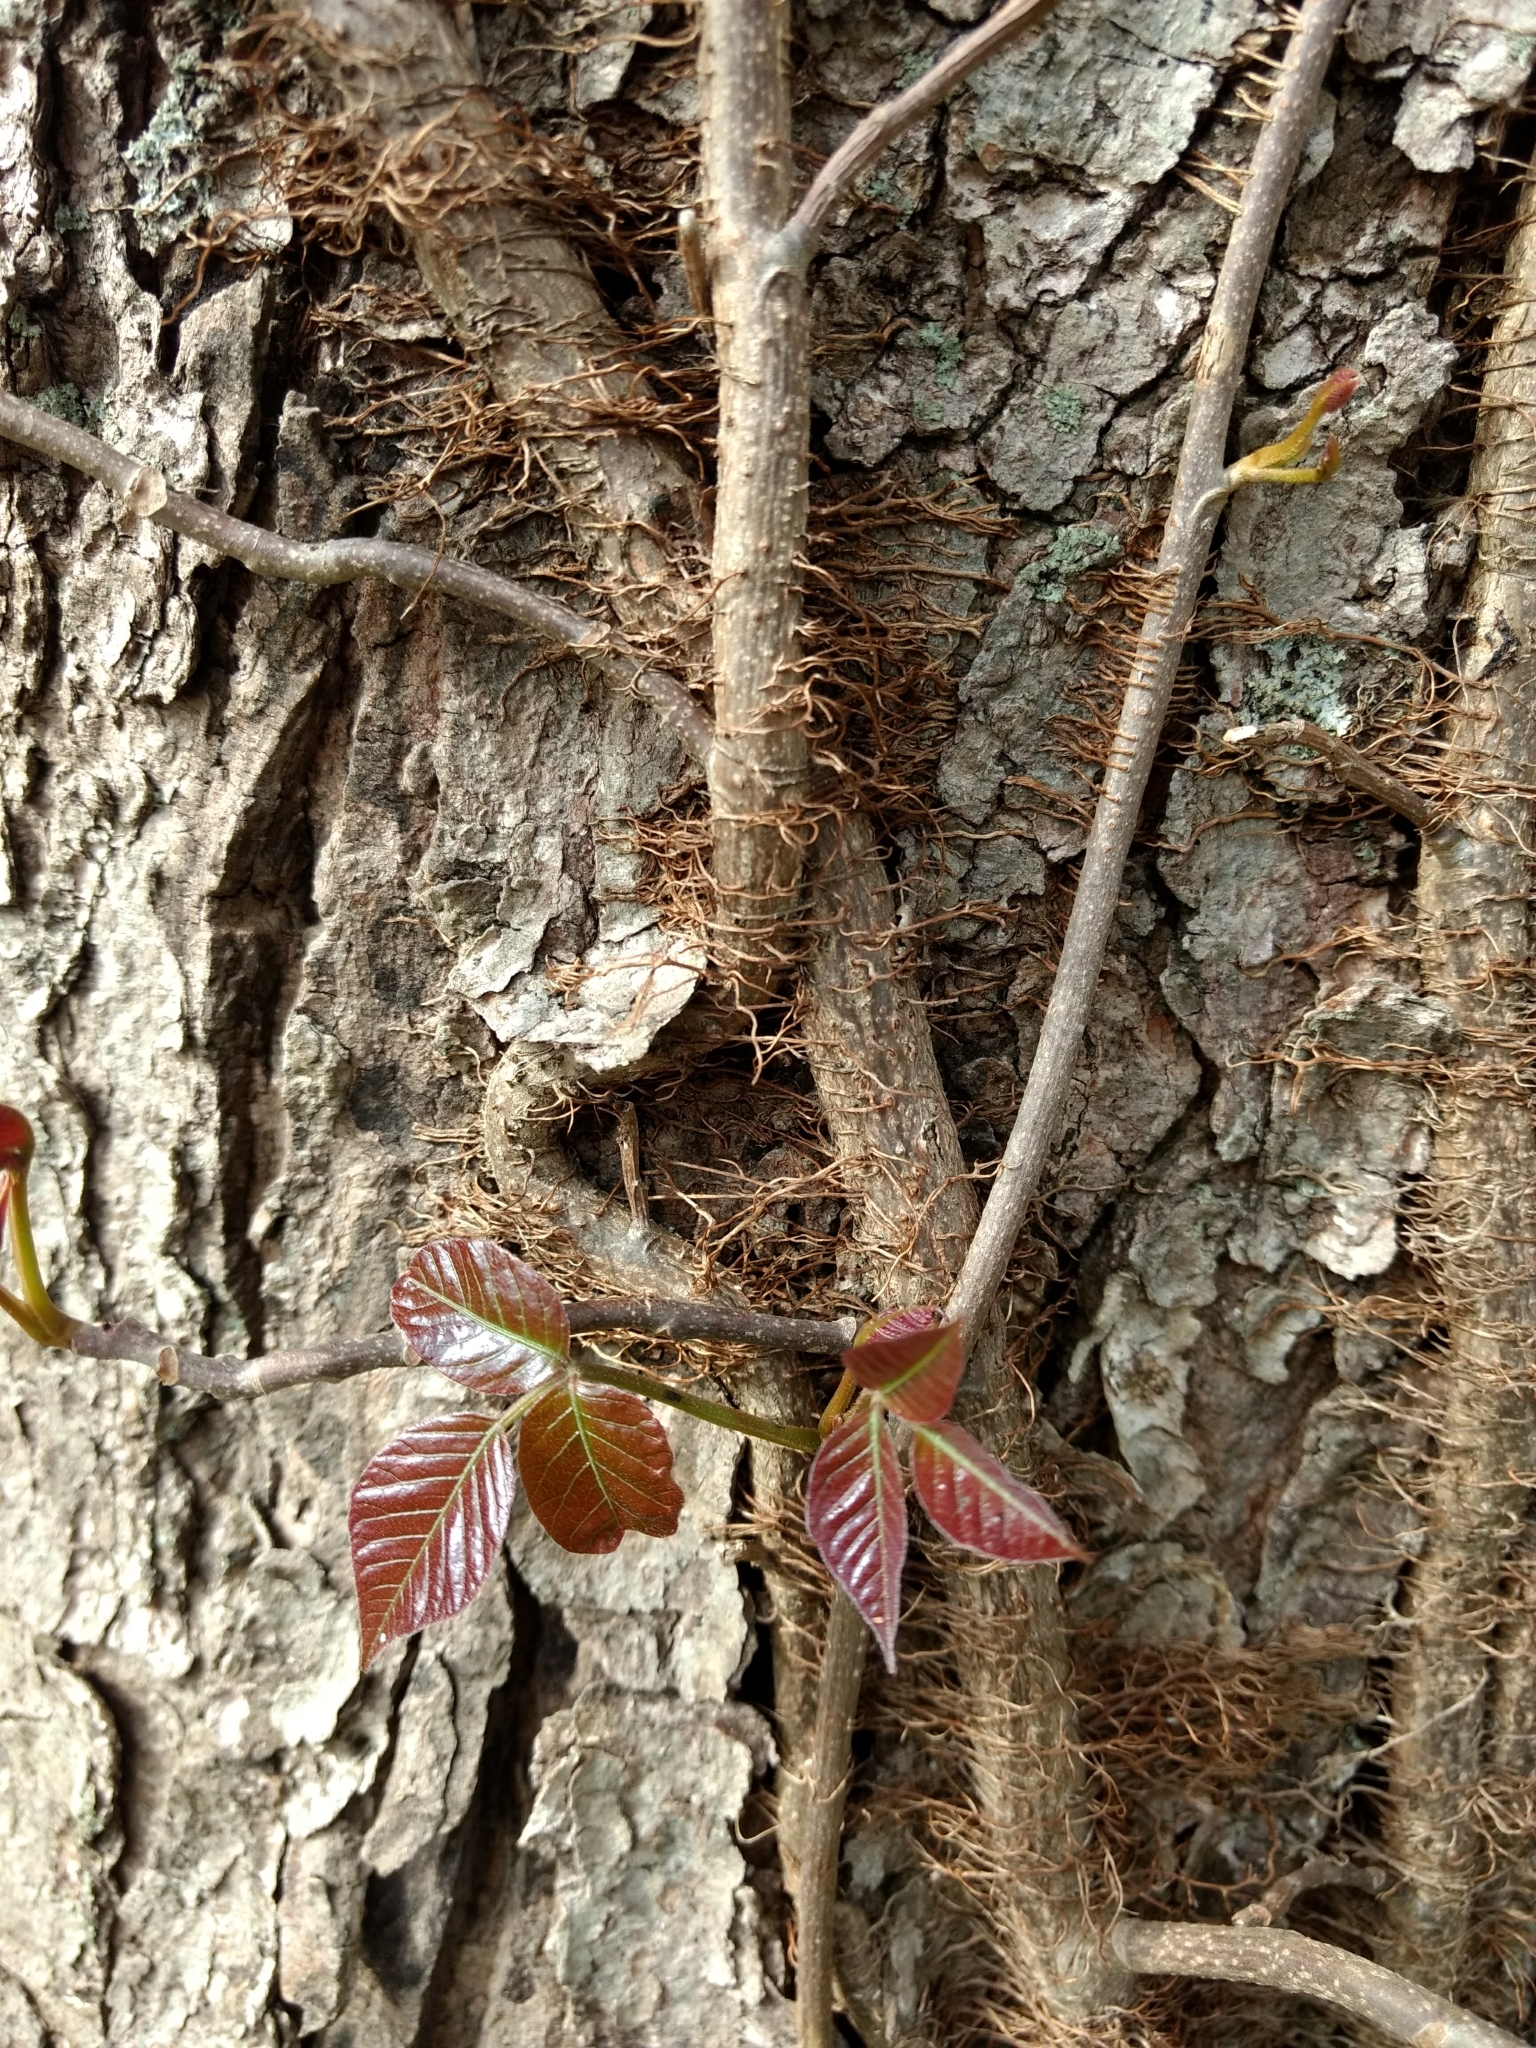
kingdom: Plantae
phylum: Tracheophyta
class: Magnoliopsida
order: Sapindales
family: Anacardiaceae
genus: Toxicodendron
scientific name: Toxicodendron radicans
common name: Poison ivy
